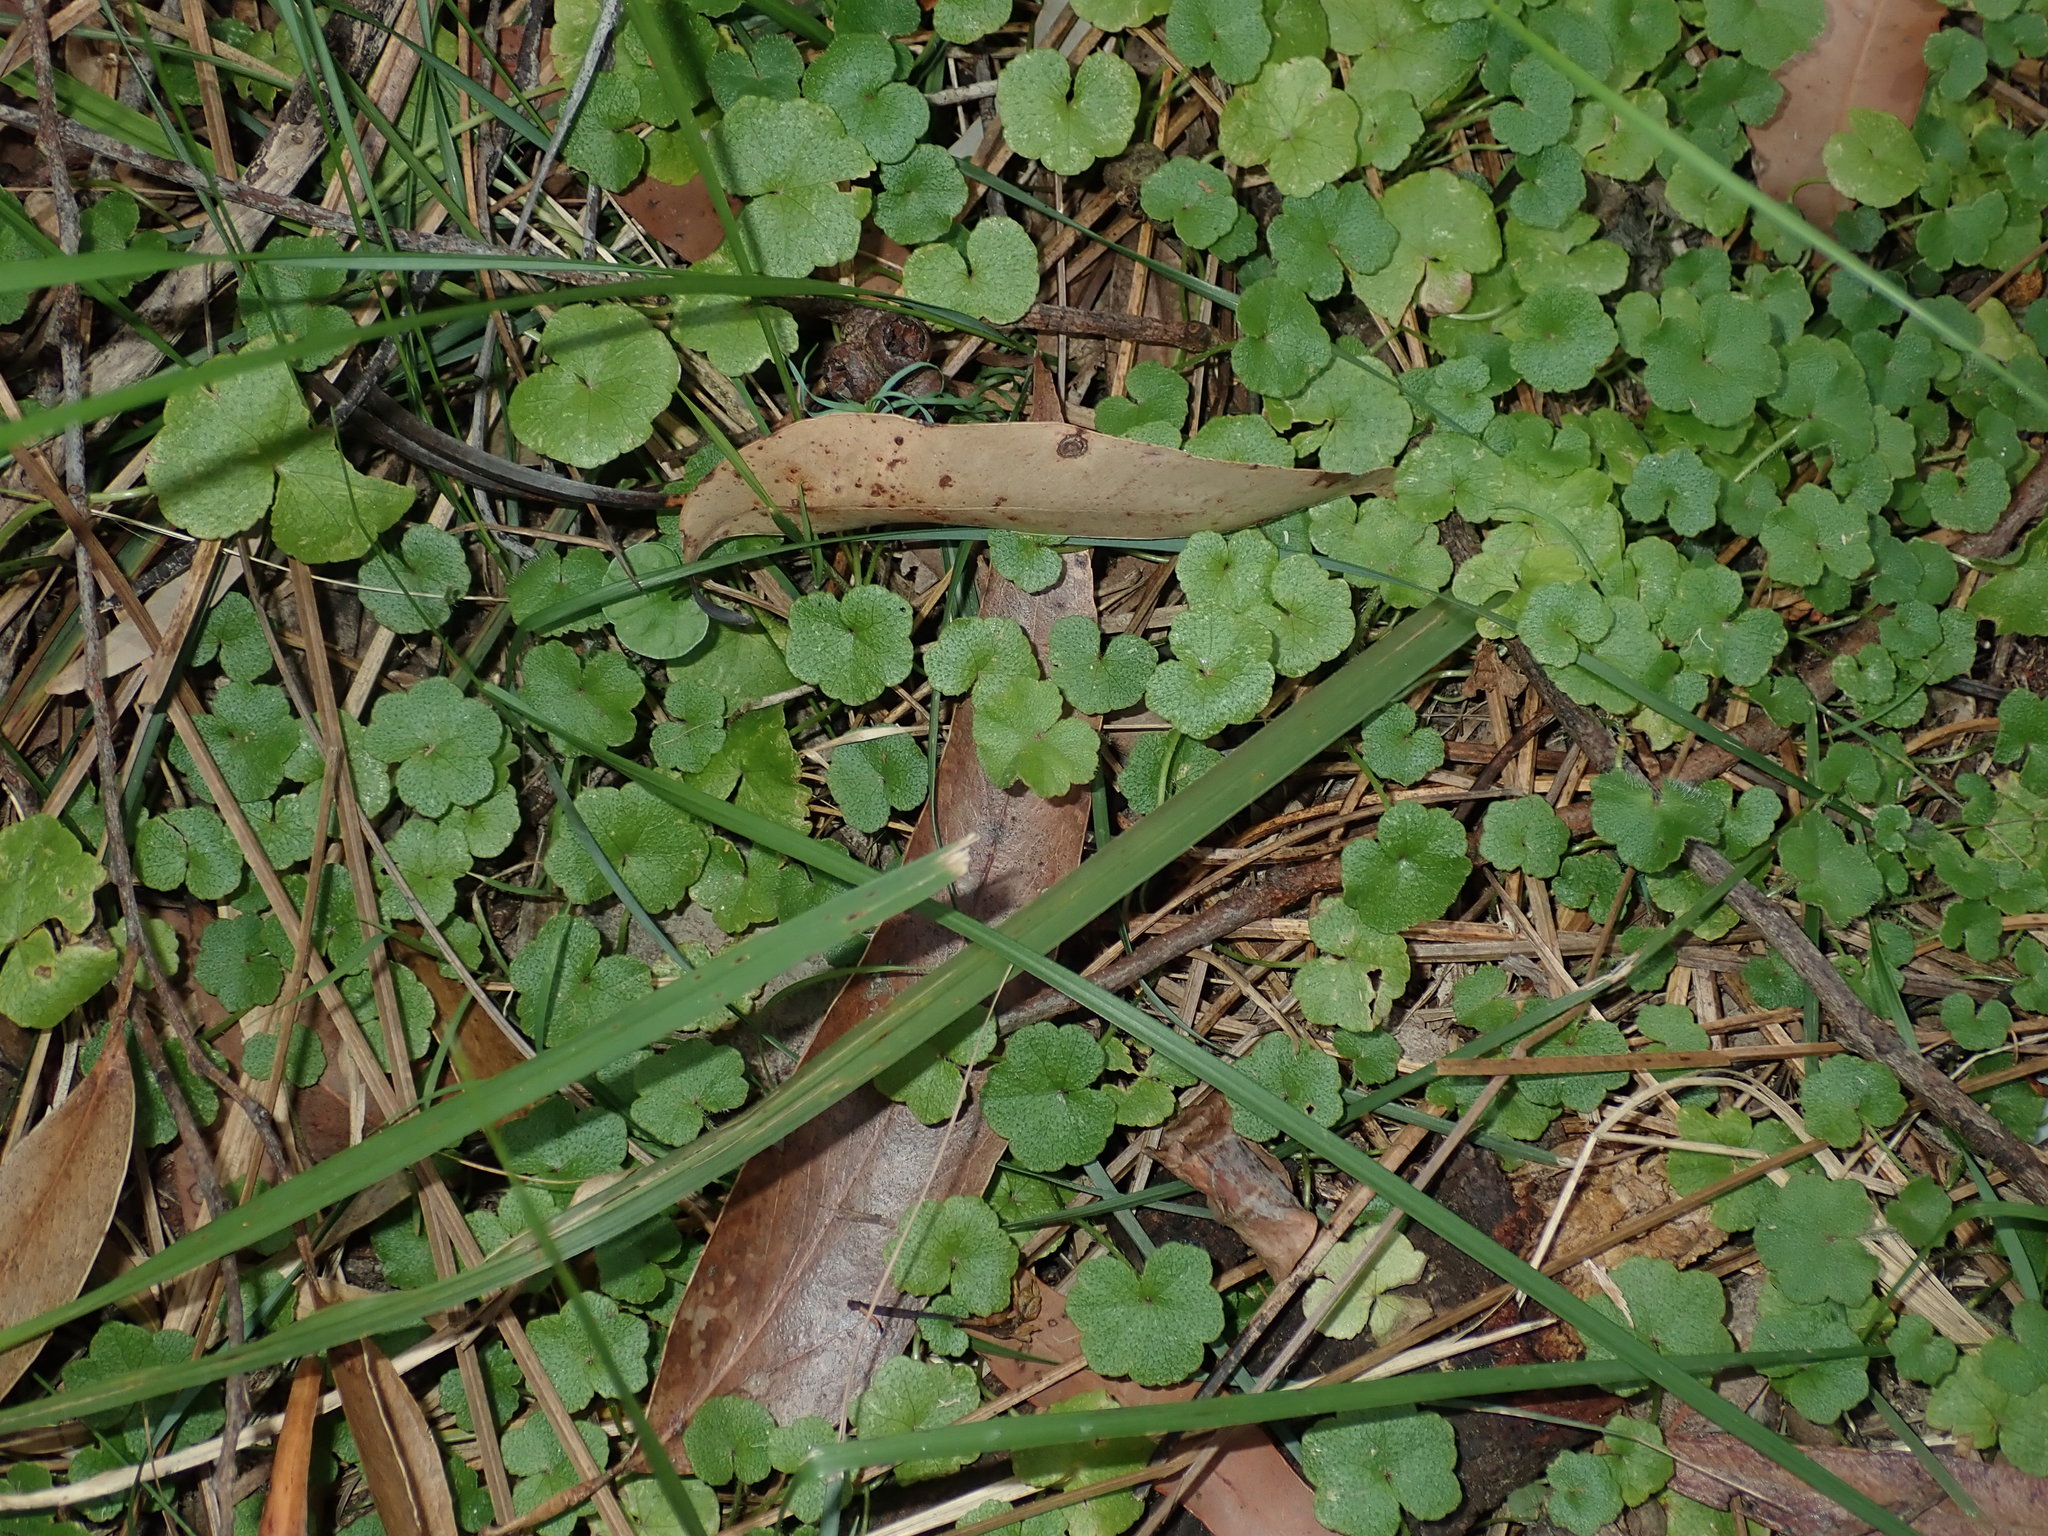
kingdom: Plantae
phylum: Tracheophyta
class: Magnoliopsida
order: Apiales
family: Araliaceae
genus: Hydrocotyle
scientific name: Hydrocotyle hirta
